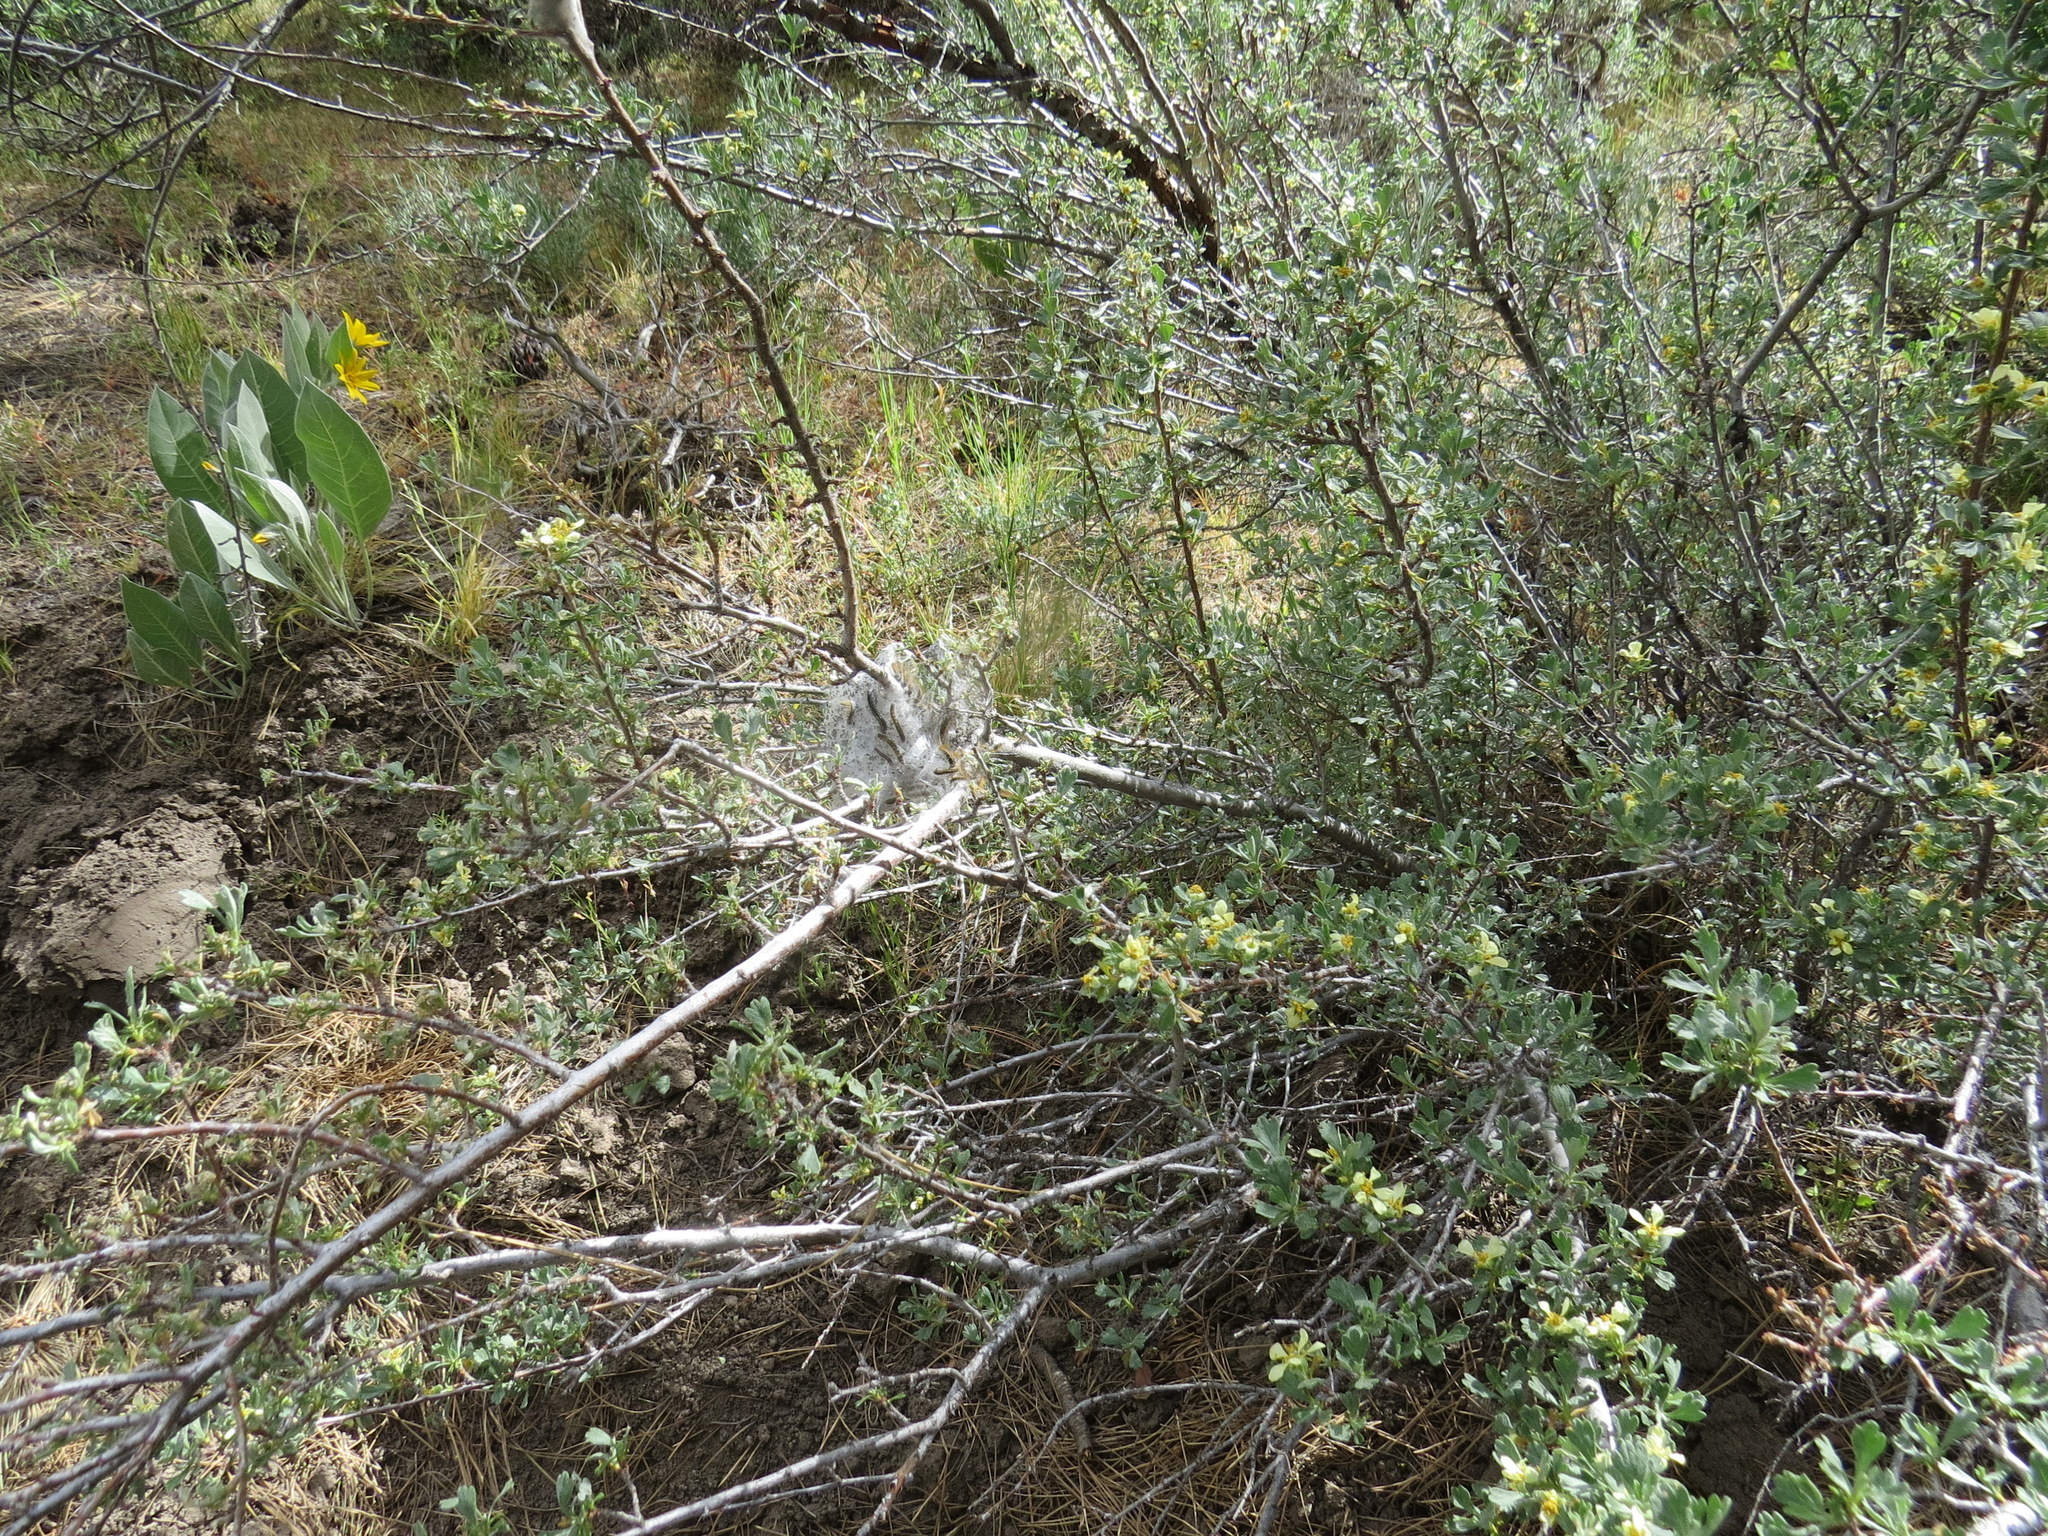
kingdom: Animalia
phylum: Arthropoda
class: Insecta
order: Lepidoptera
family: Lasiocampidae
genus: Malacosoma
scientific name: Malacosoma californica
